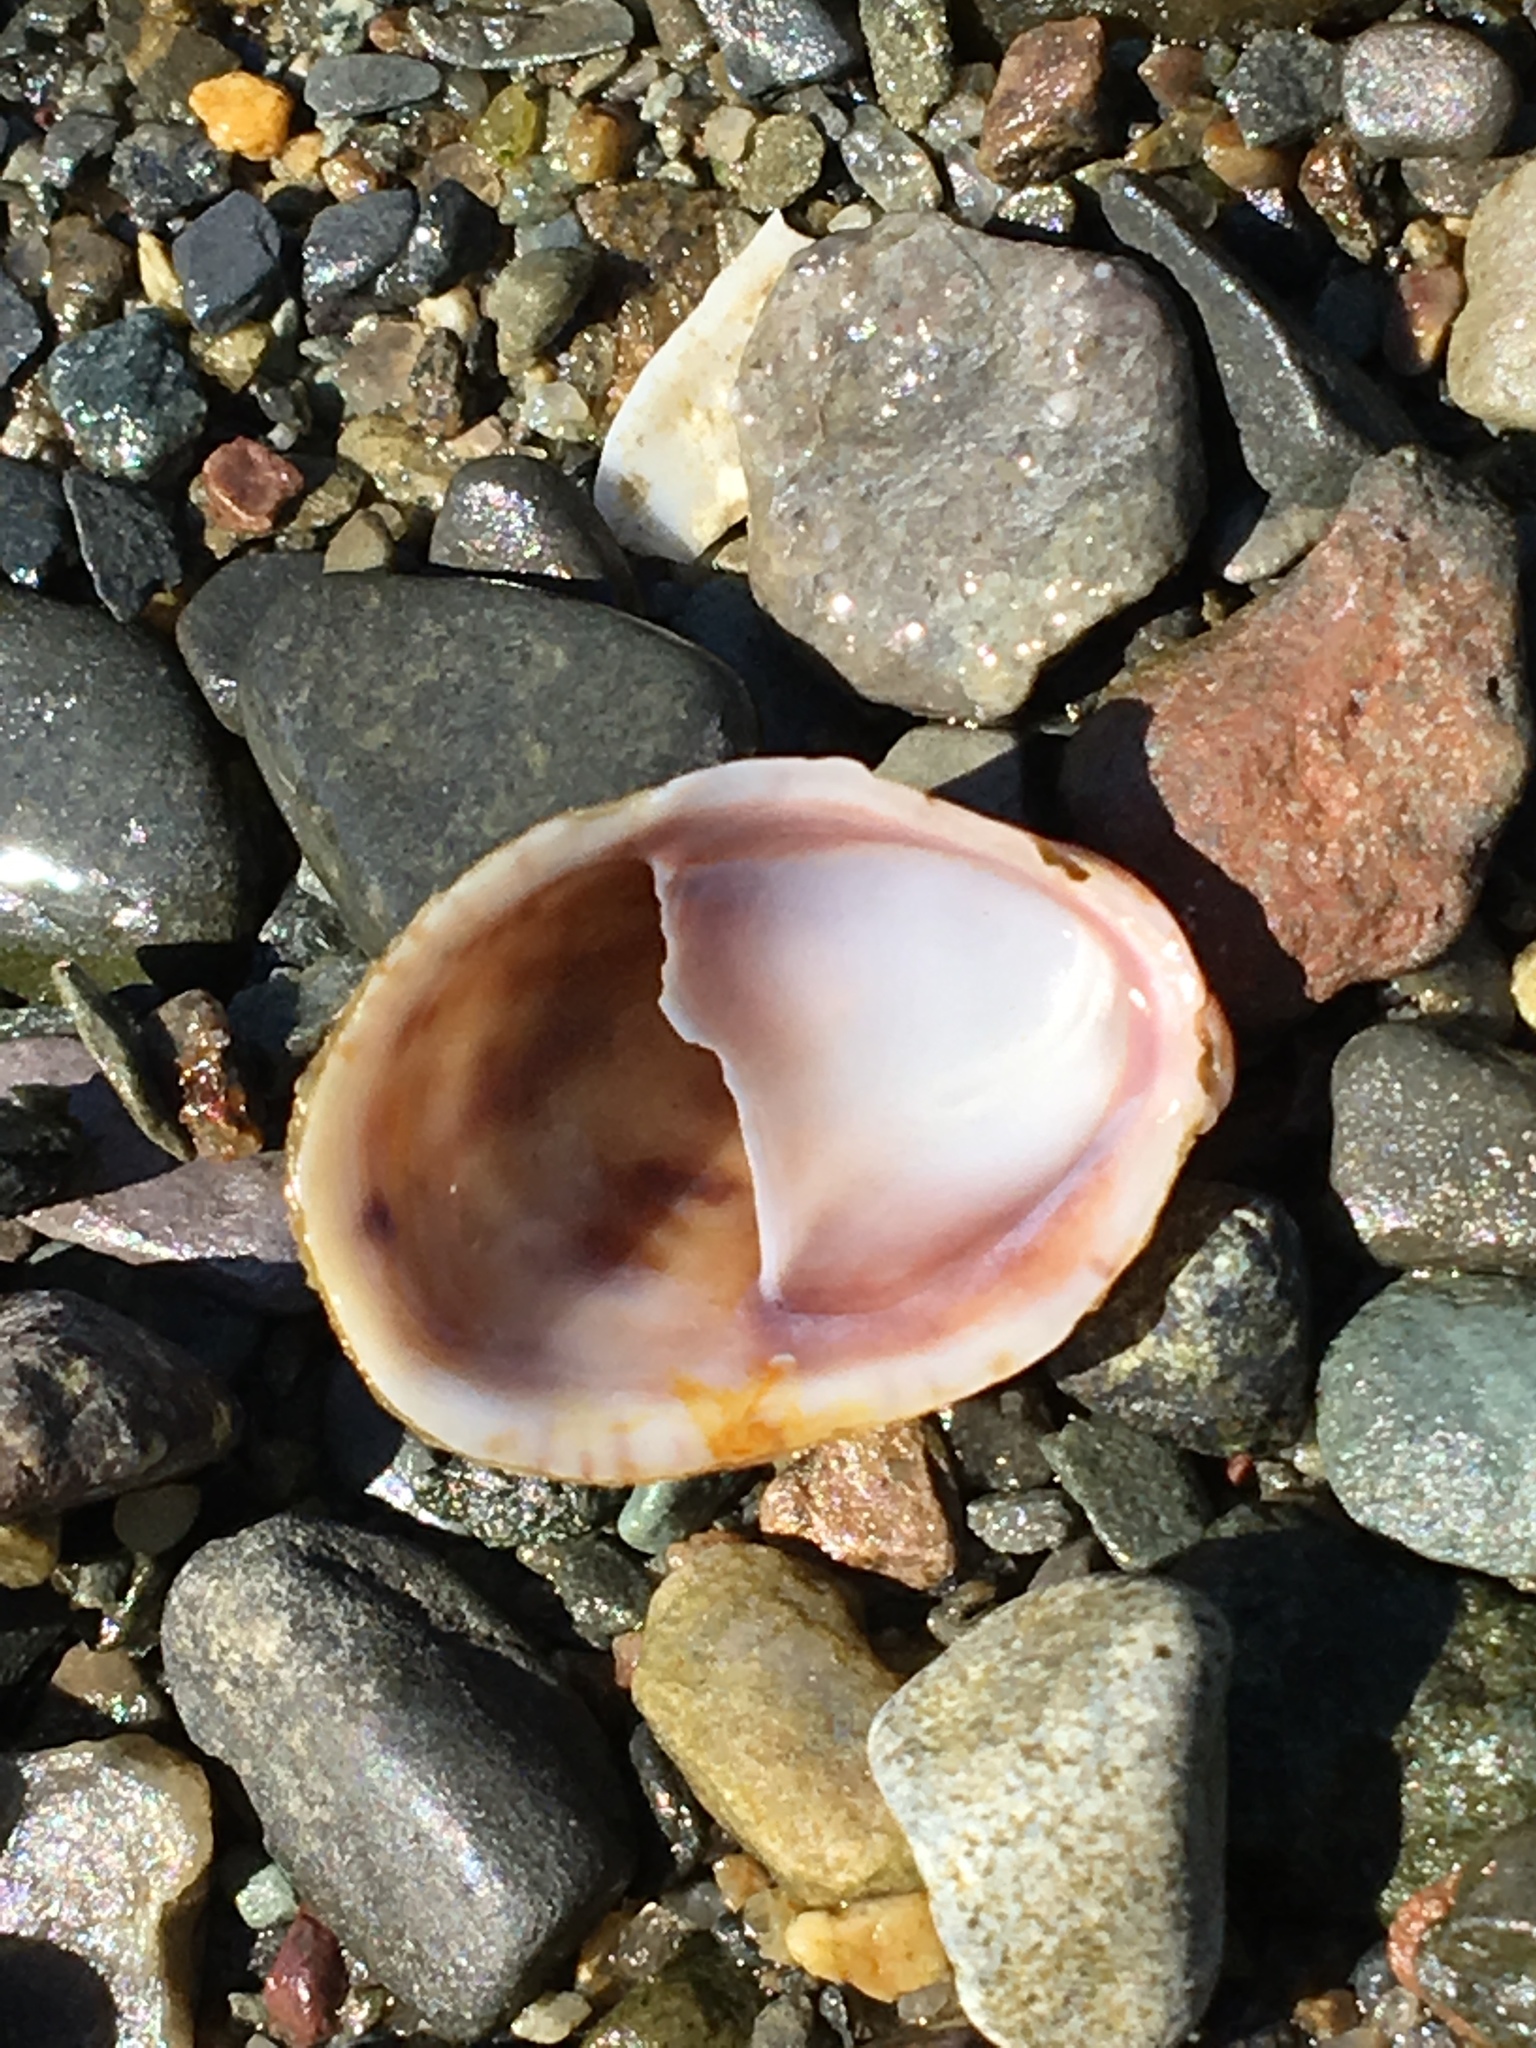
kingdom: Animalia
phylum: Mollusca
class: Gastropoda
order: Littorinimorpha
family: Calyptraeidae
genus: Crepidula
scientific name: Crepidula fornicata
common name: Slipper limpet
